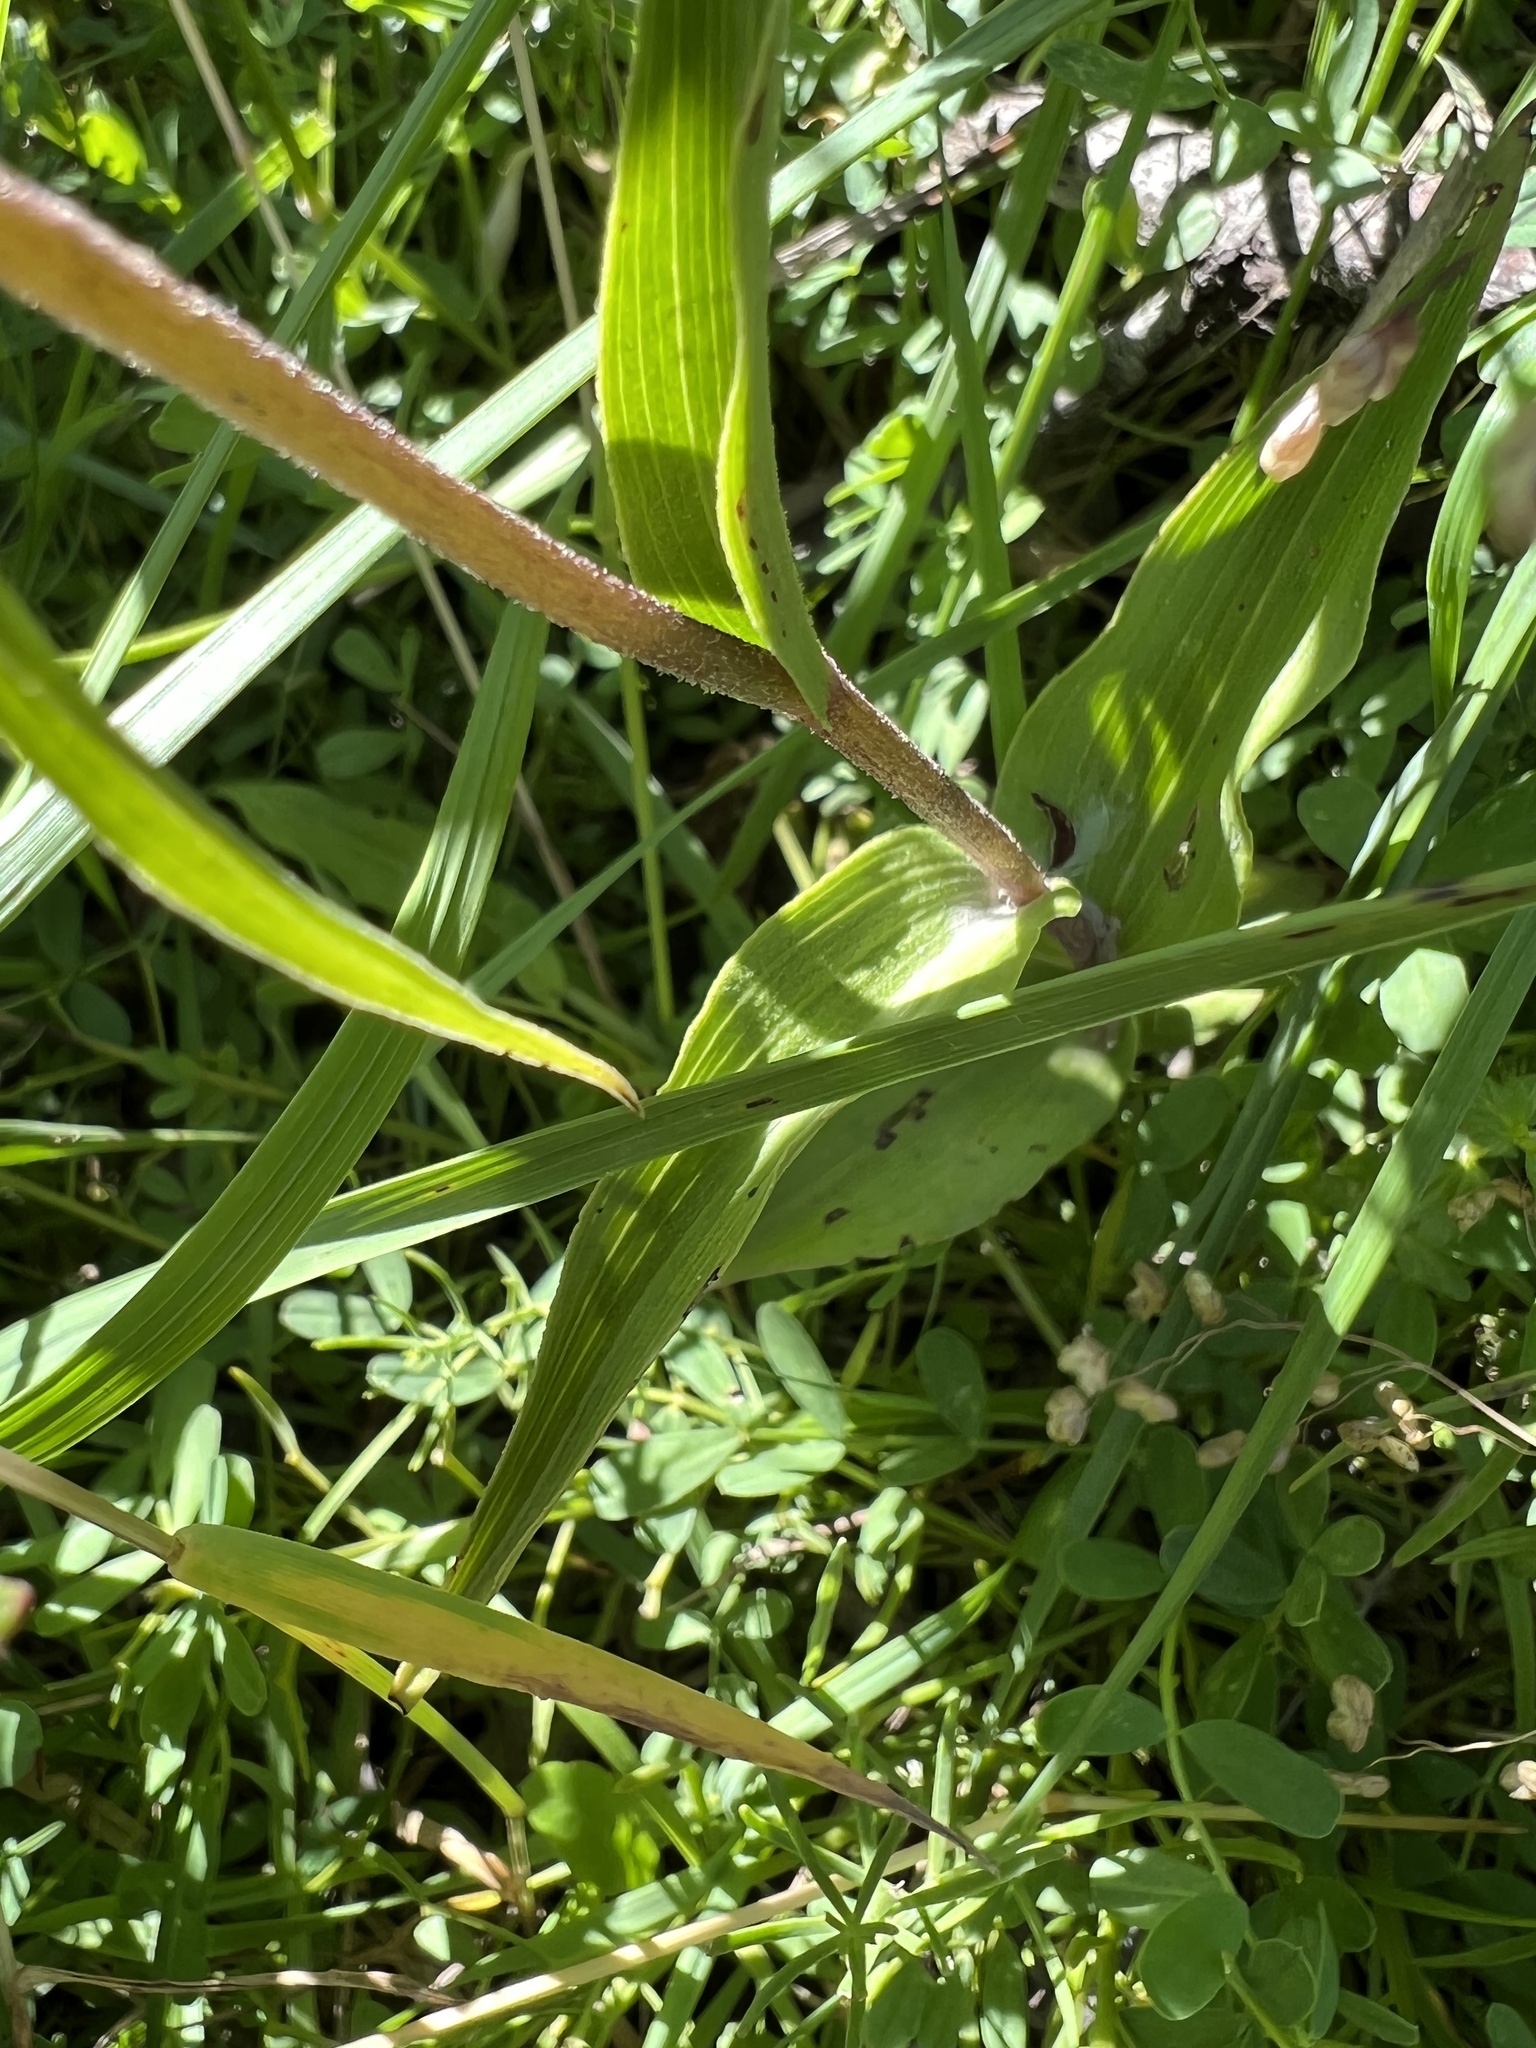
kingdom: Plantae
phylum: Tracheophyta
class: Liliopsida
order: Asparagales
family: Orchidaceae
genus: Epipactis
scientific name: Epipactis atrorubens
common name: Dark-red helleborine
